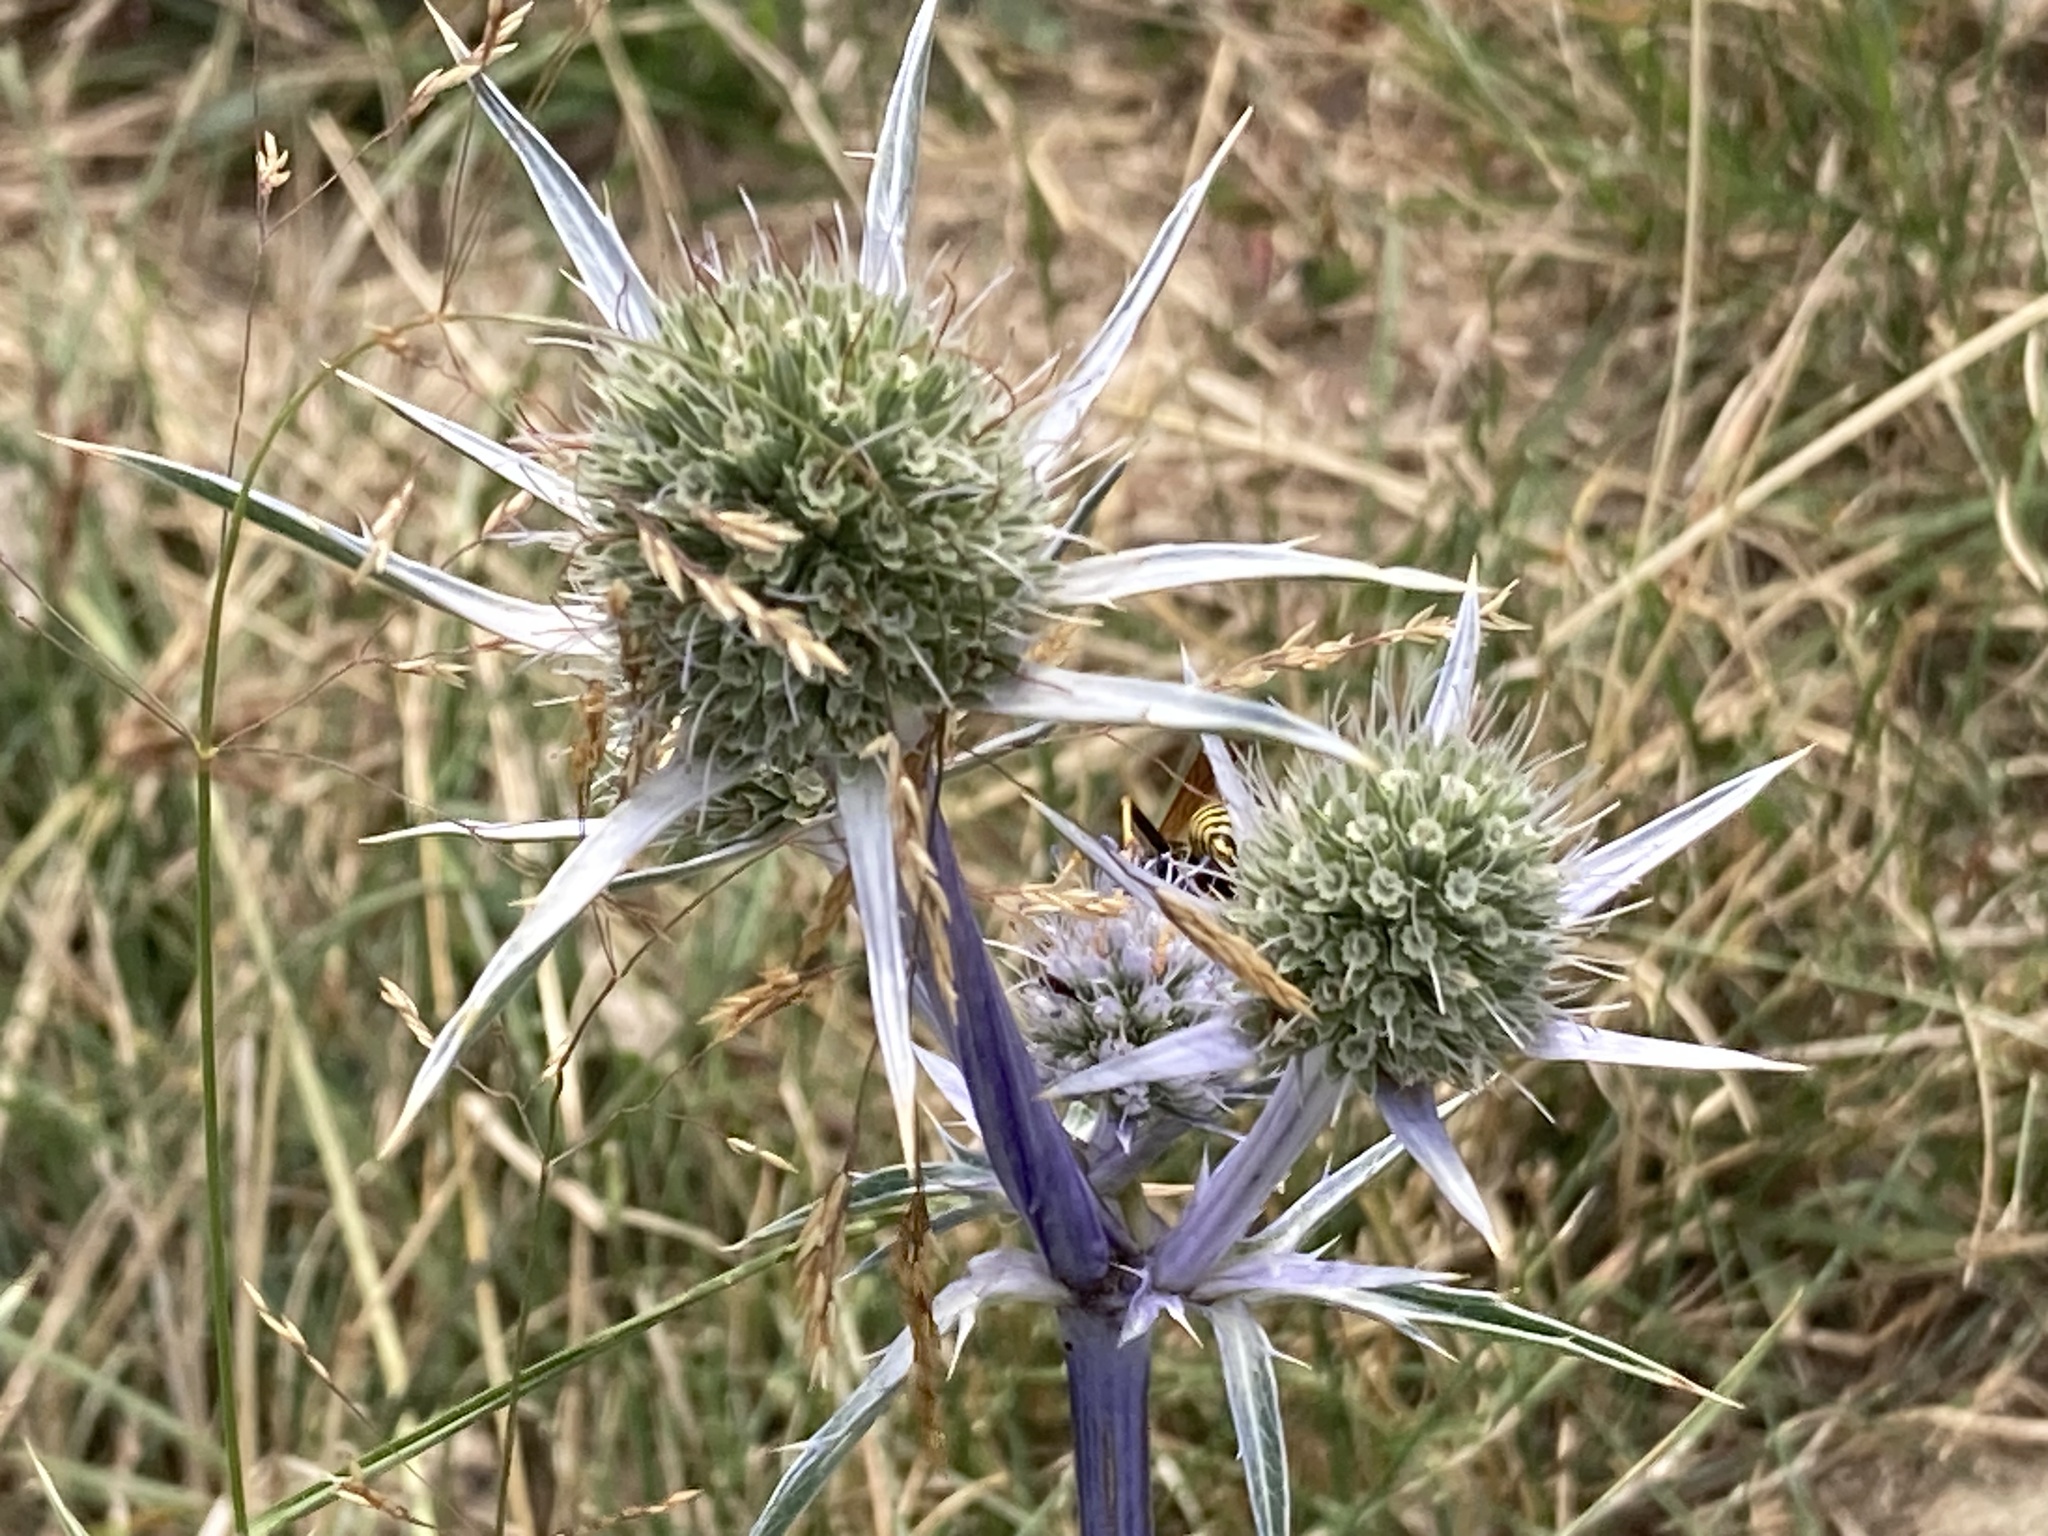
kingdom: Plantae
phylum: Tracheophyta
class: Magnoliopsida
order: Apiales
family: Apiaceae
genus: Eryngium
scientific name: Eryngium bourgatii
